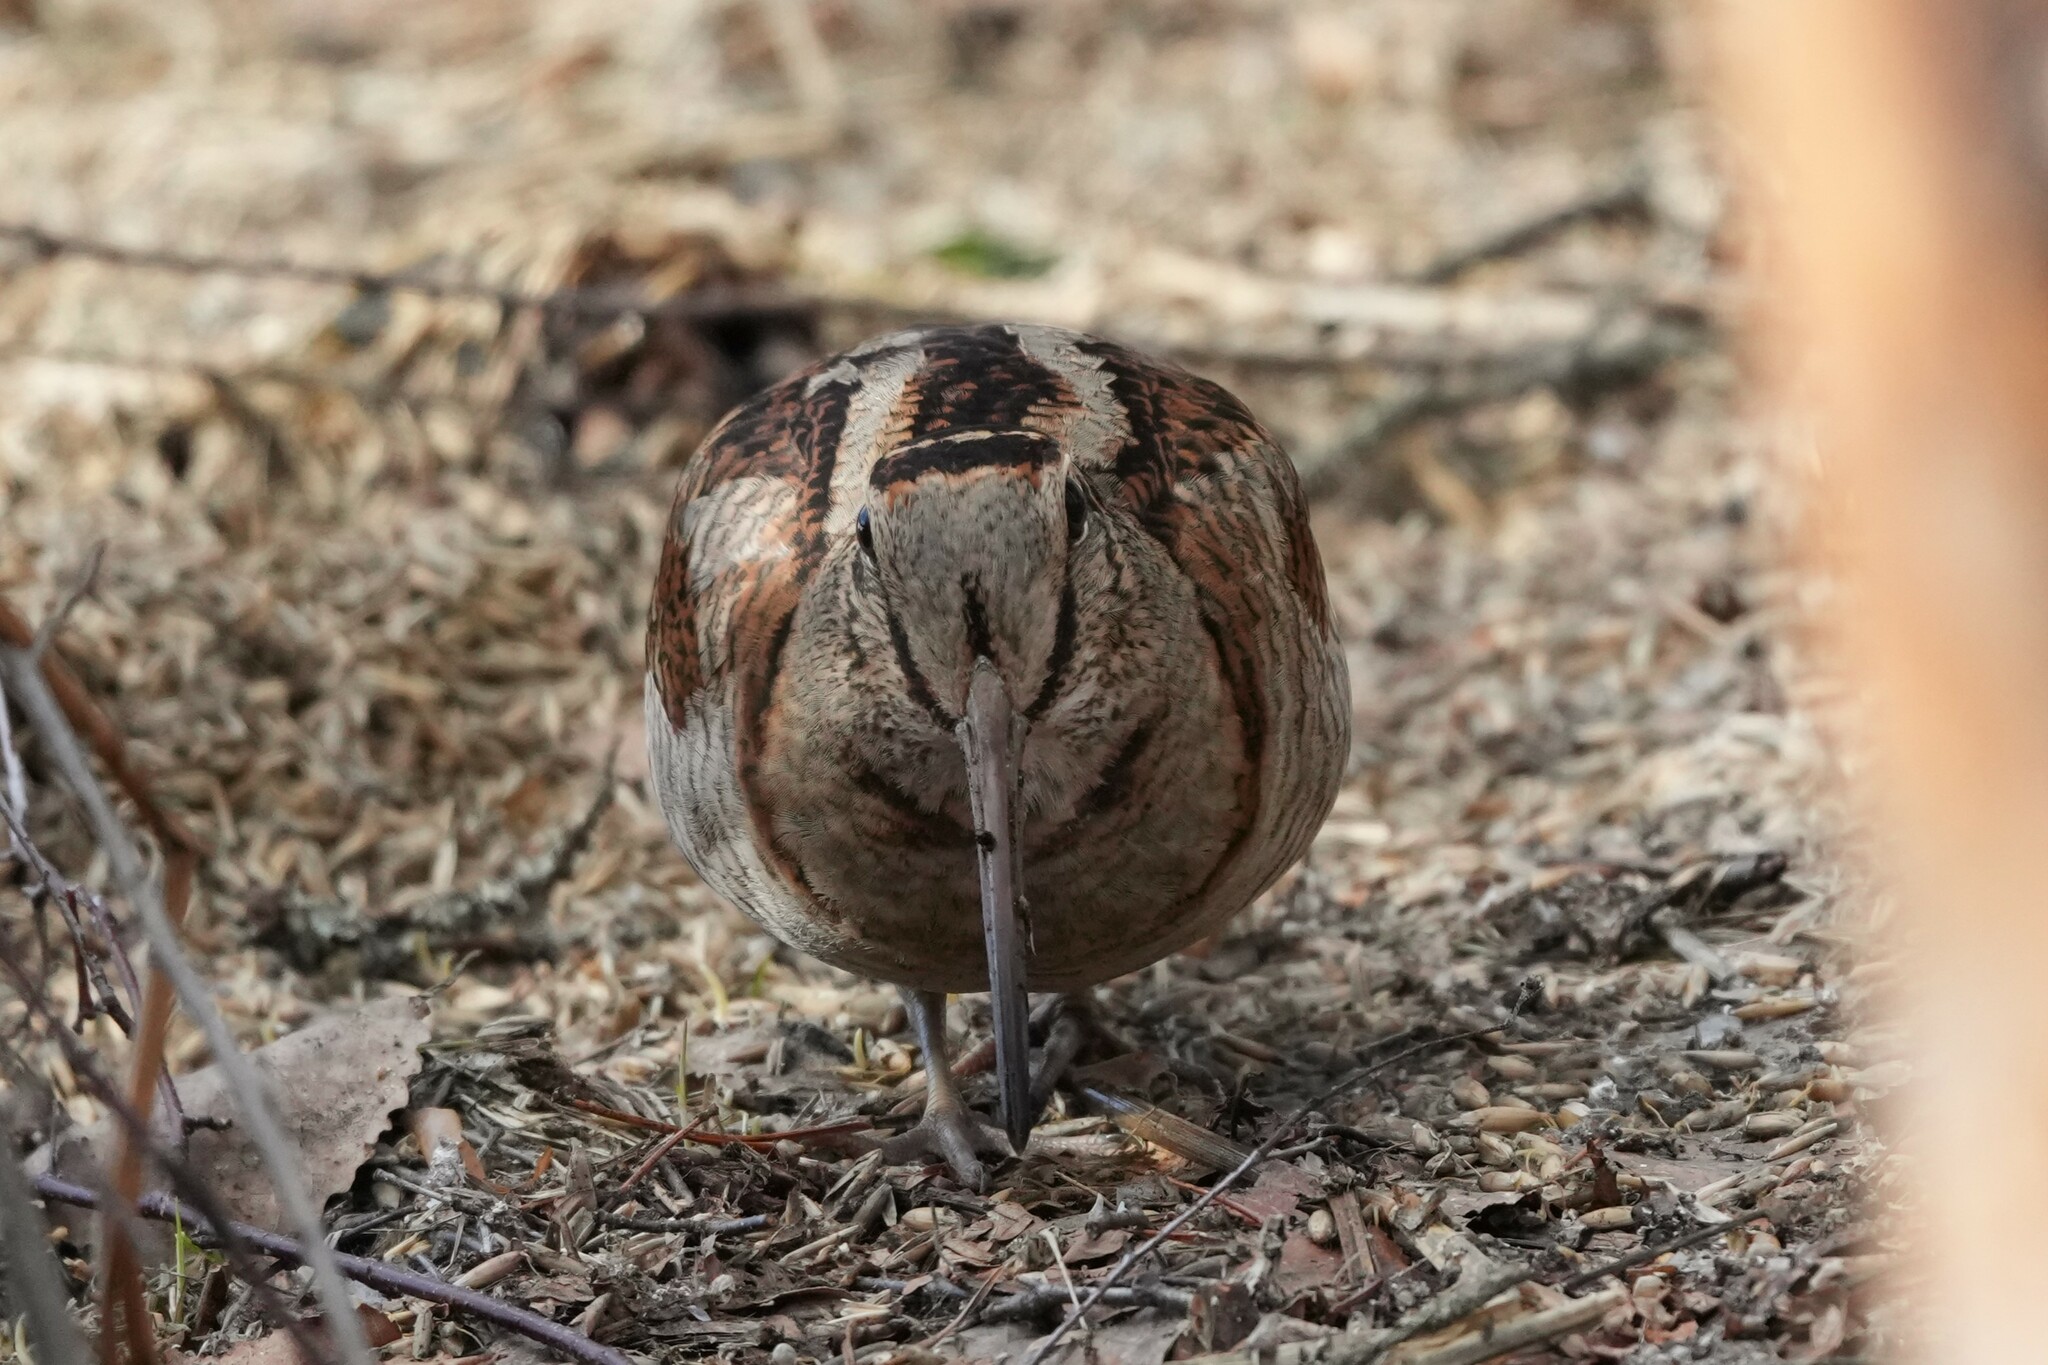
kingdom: Animalia
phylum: Chordata
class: Aves
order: Charadriiformes
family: Scolopacidae
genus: Scolopax
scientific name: Scolopax rusticola
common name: Eurasian woodcock
